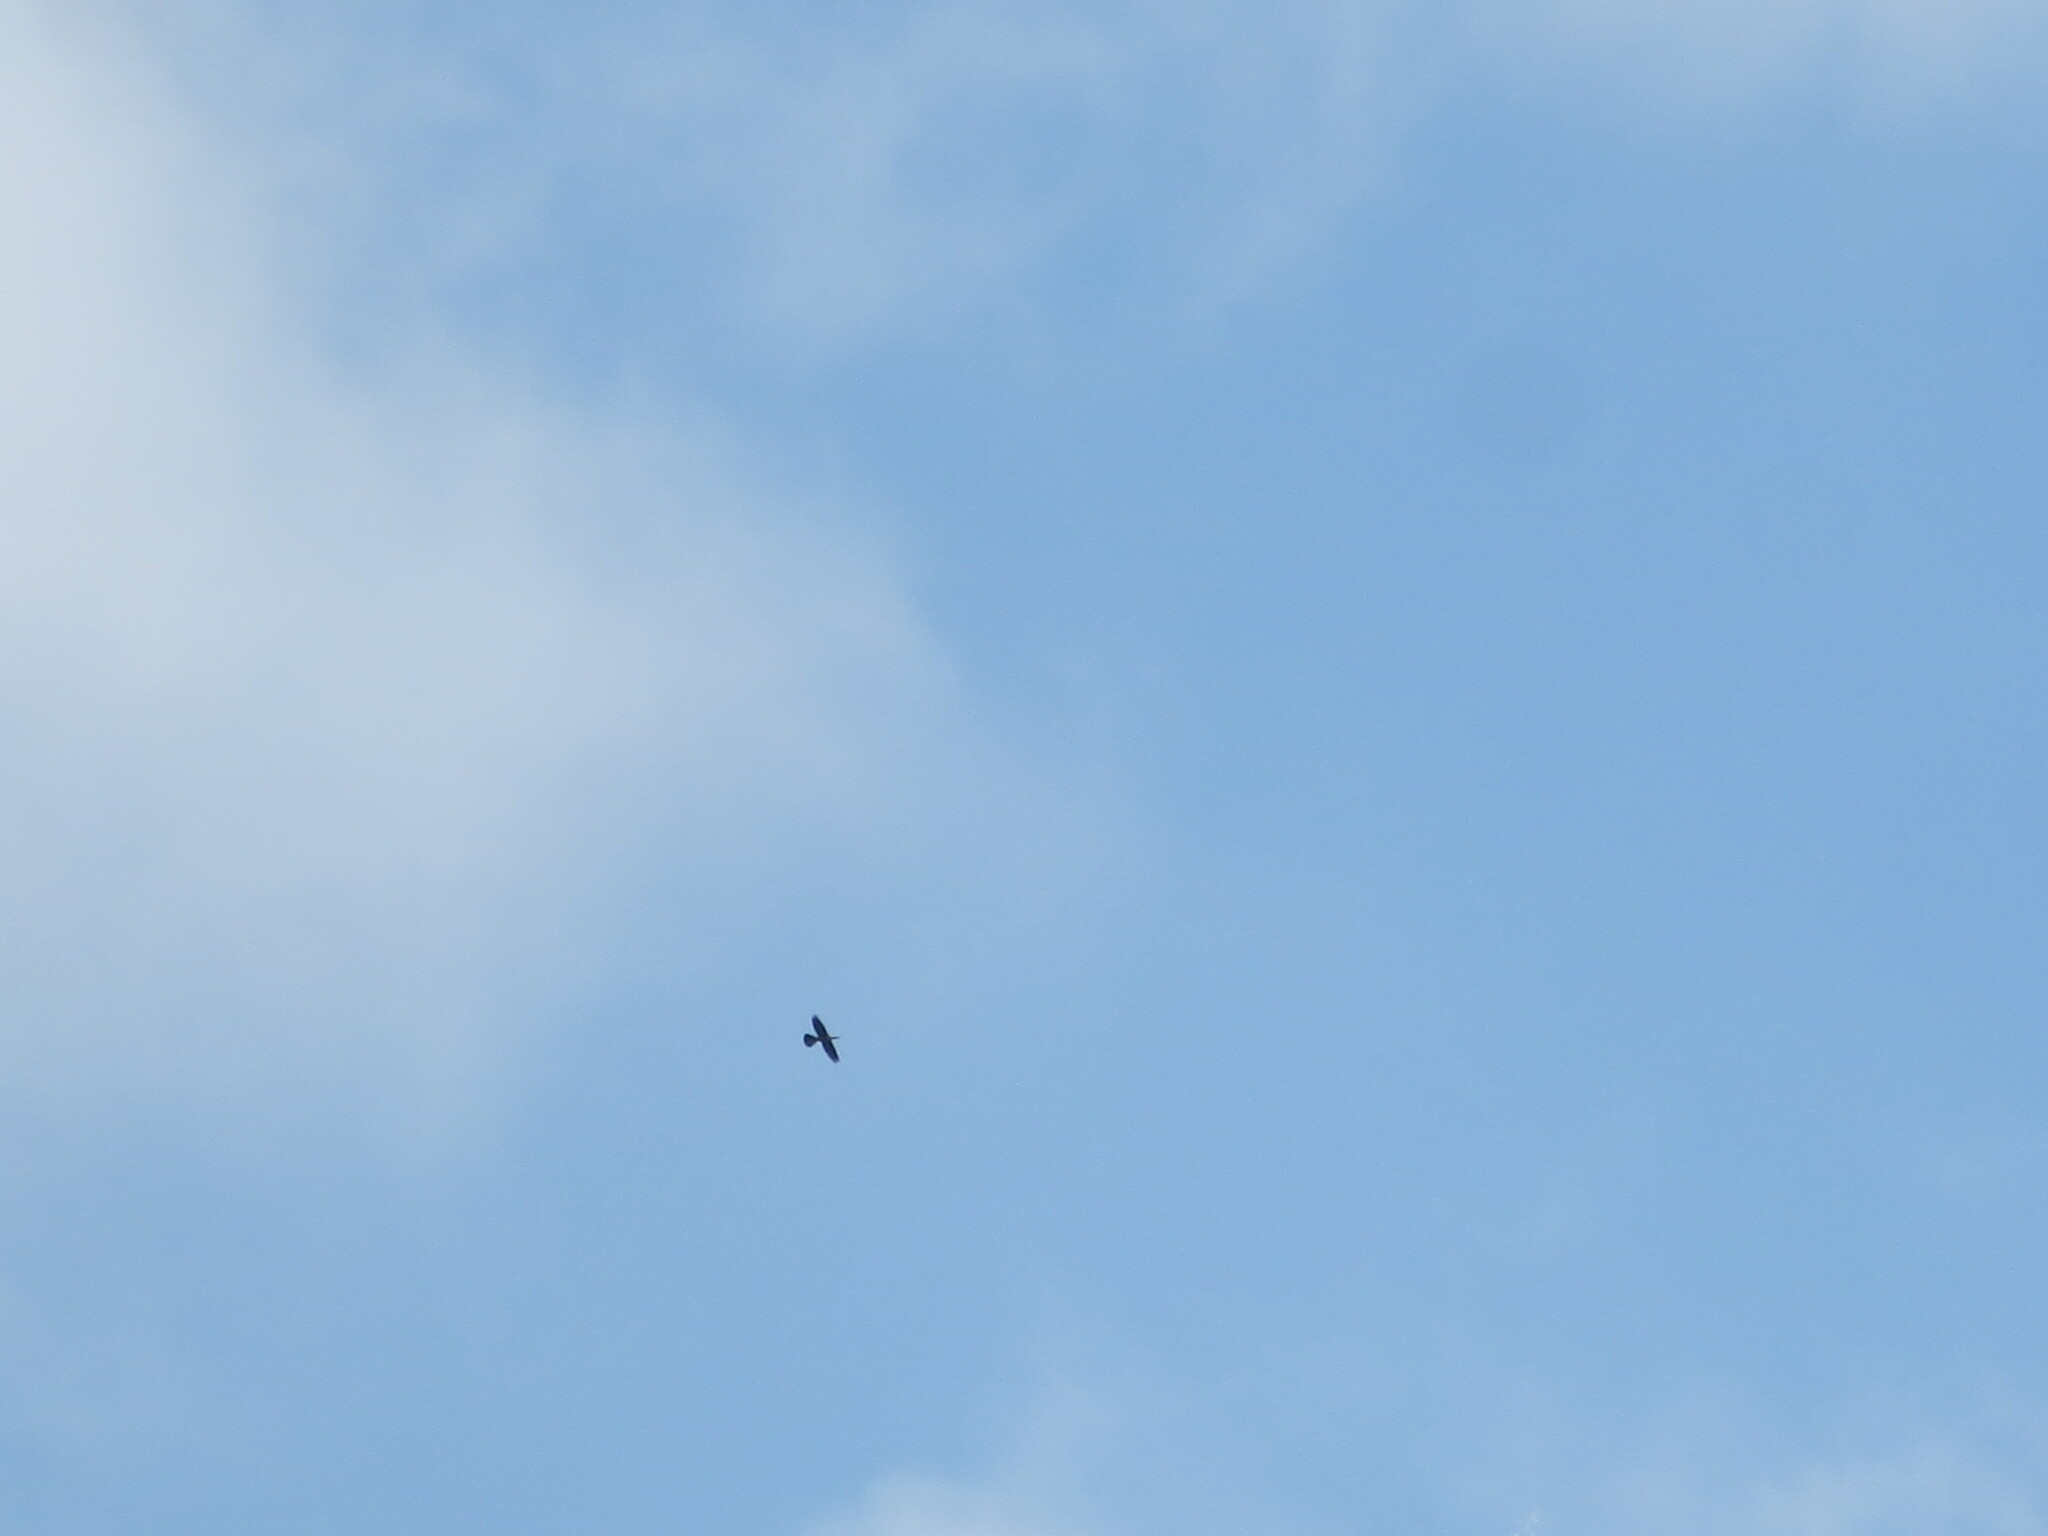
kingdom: Animalia
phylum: Chordata
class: Aves
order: Suliformes
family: Anhingidae
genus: Anhinga
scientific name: Anhinga anhinga
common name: Anhinga
